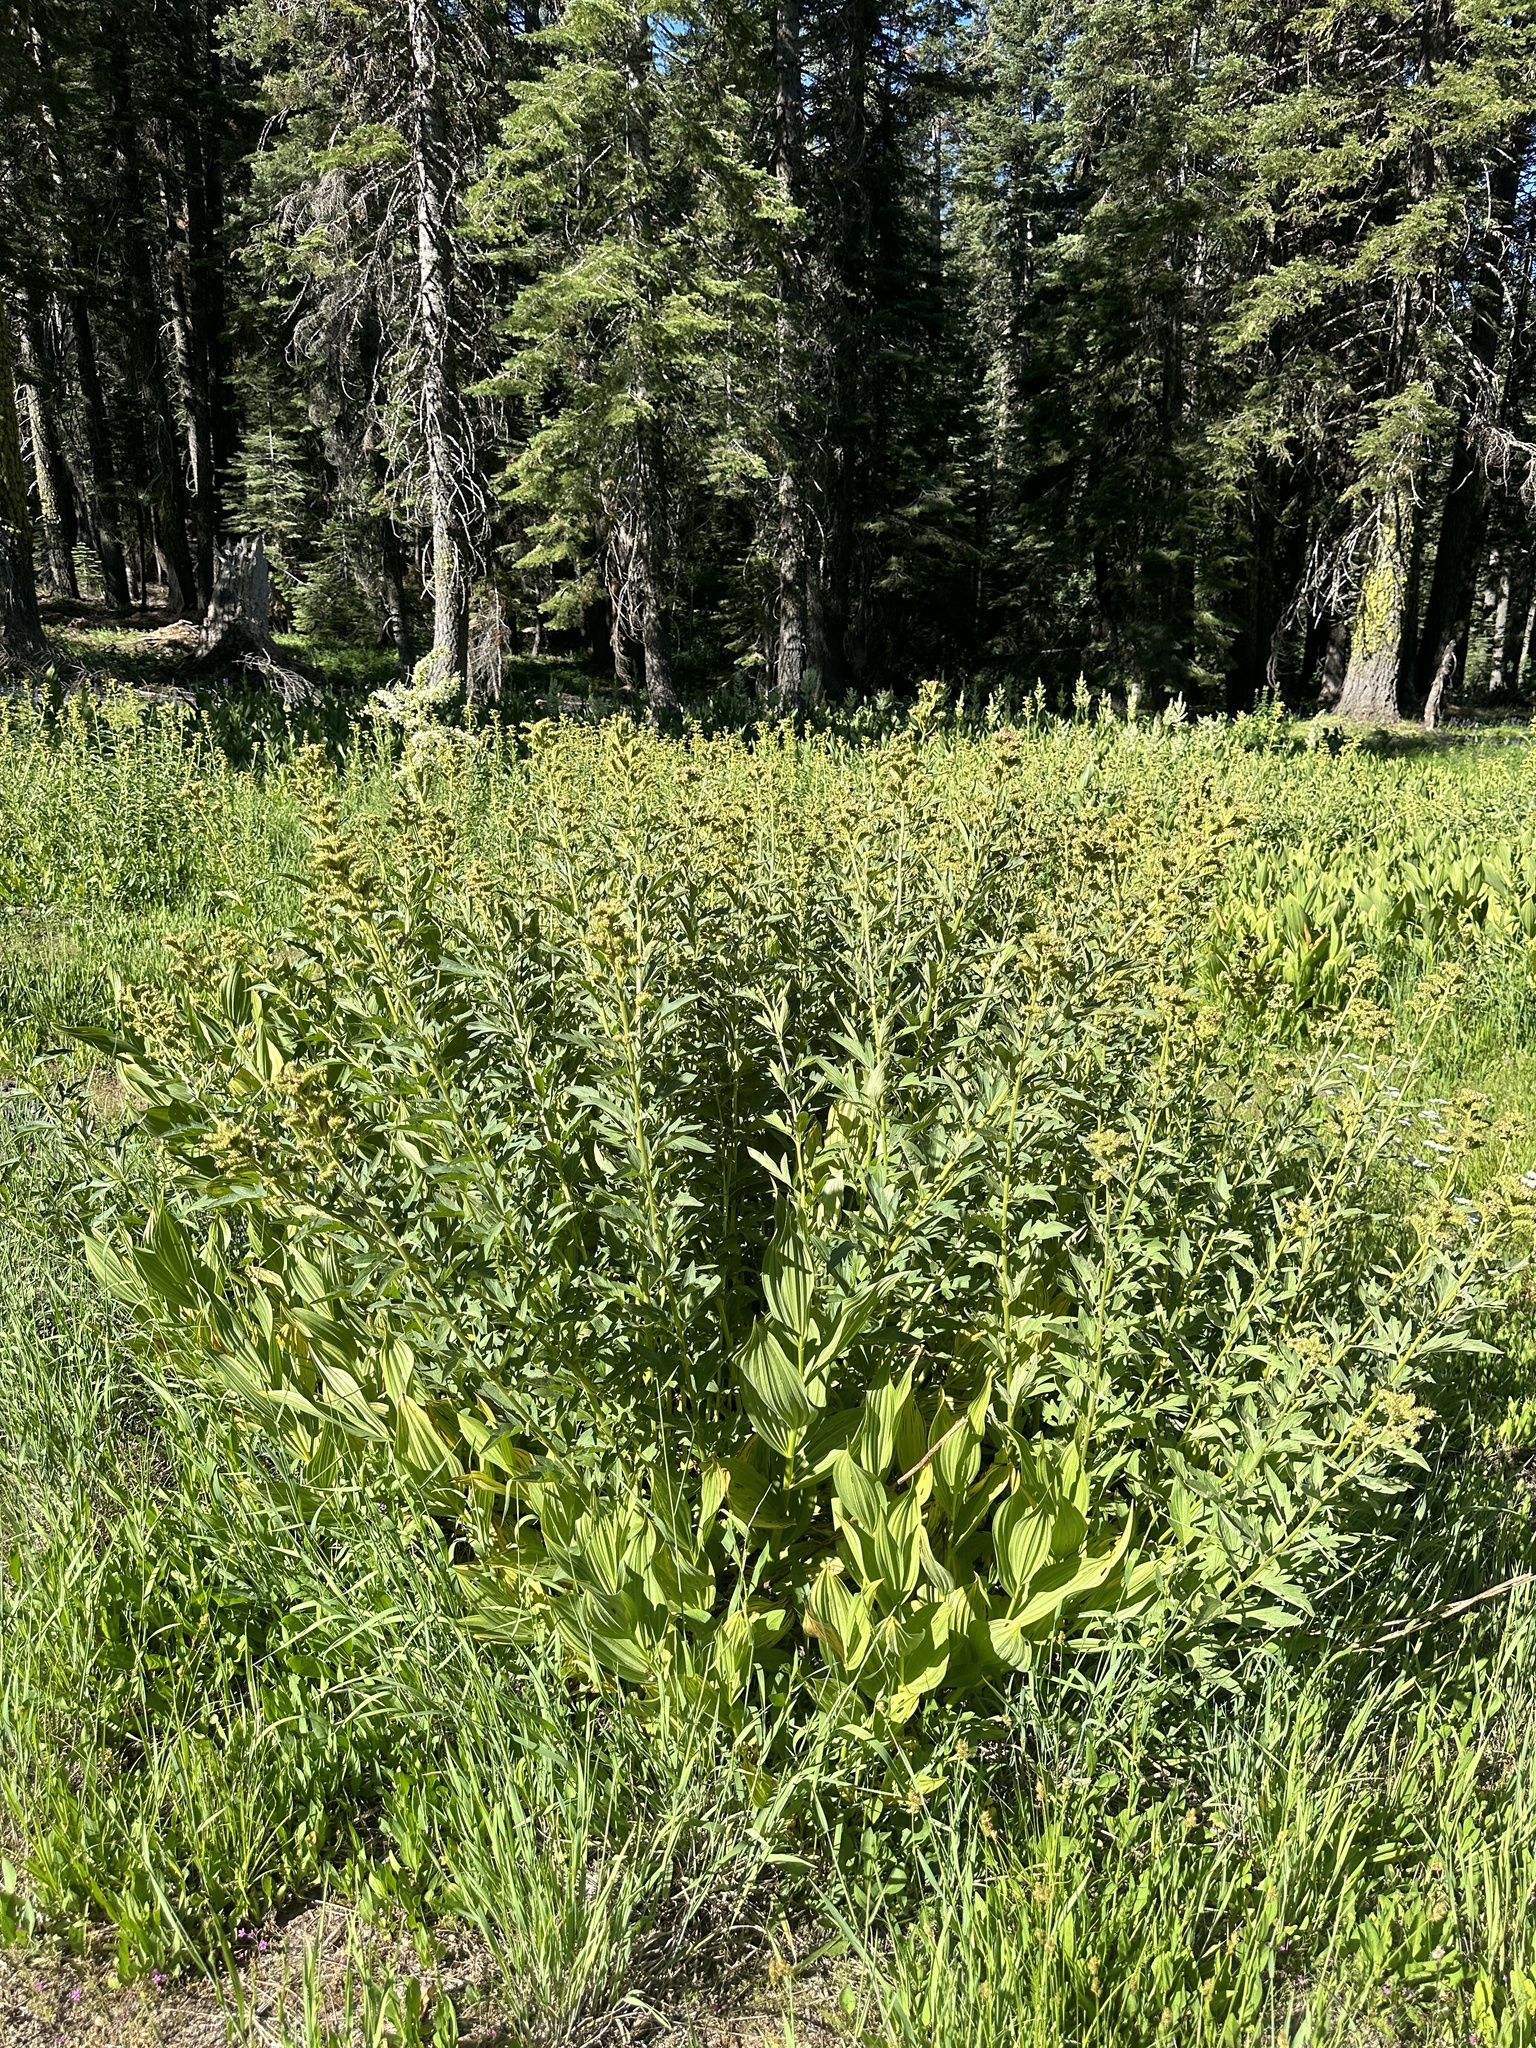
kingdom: Plantae
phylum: Tracheophyta
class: Magnoliopsida
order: Boraginales
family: Hydrophyllaceae
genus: Phacelia
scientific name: Phacelia procera
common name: Tall phacelia
